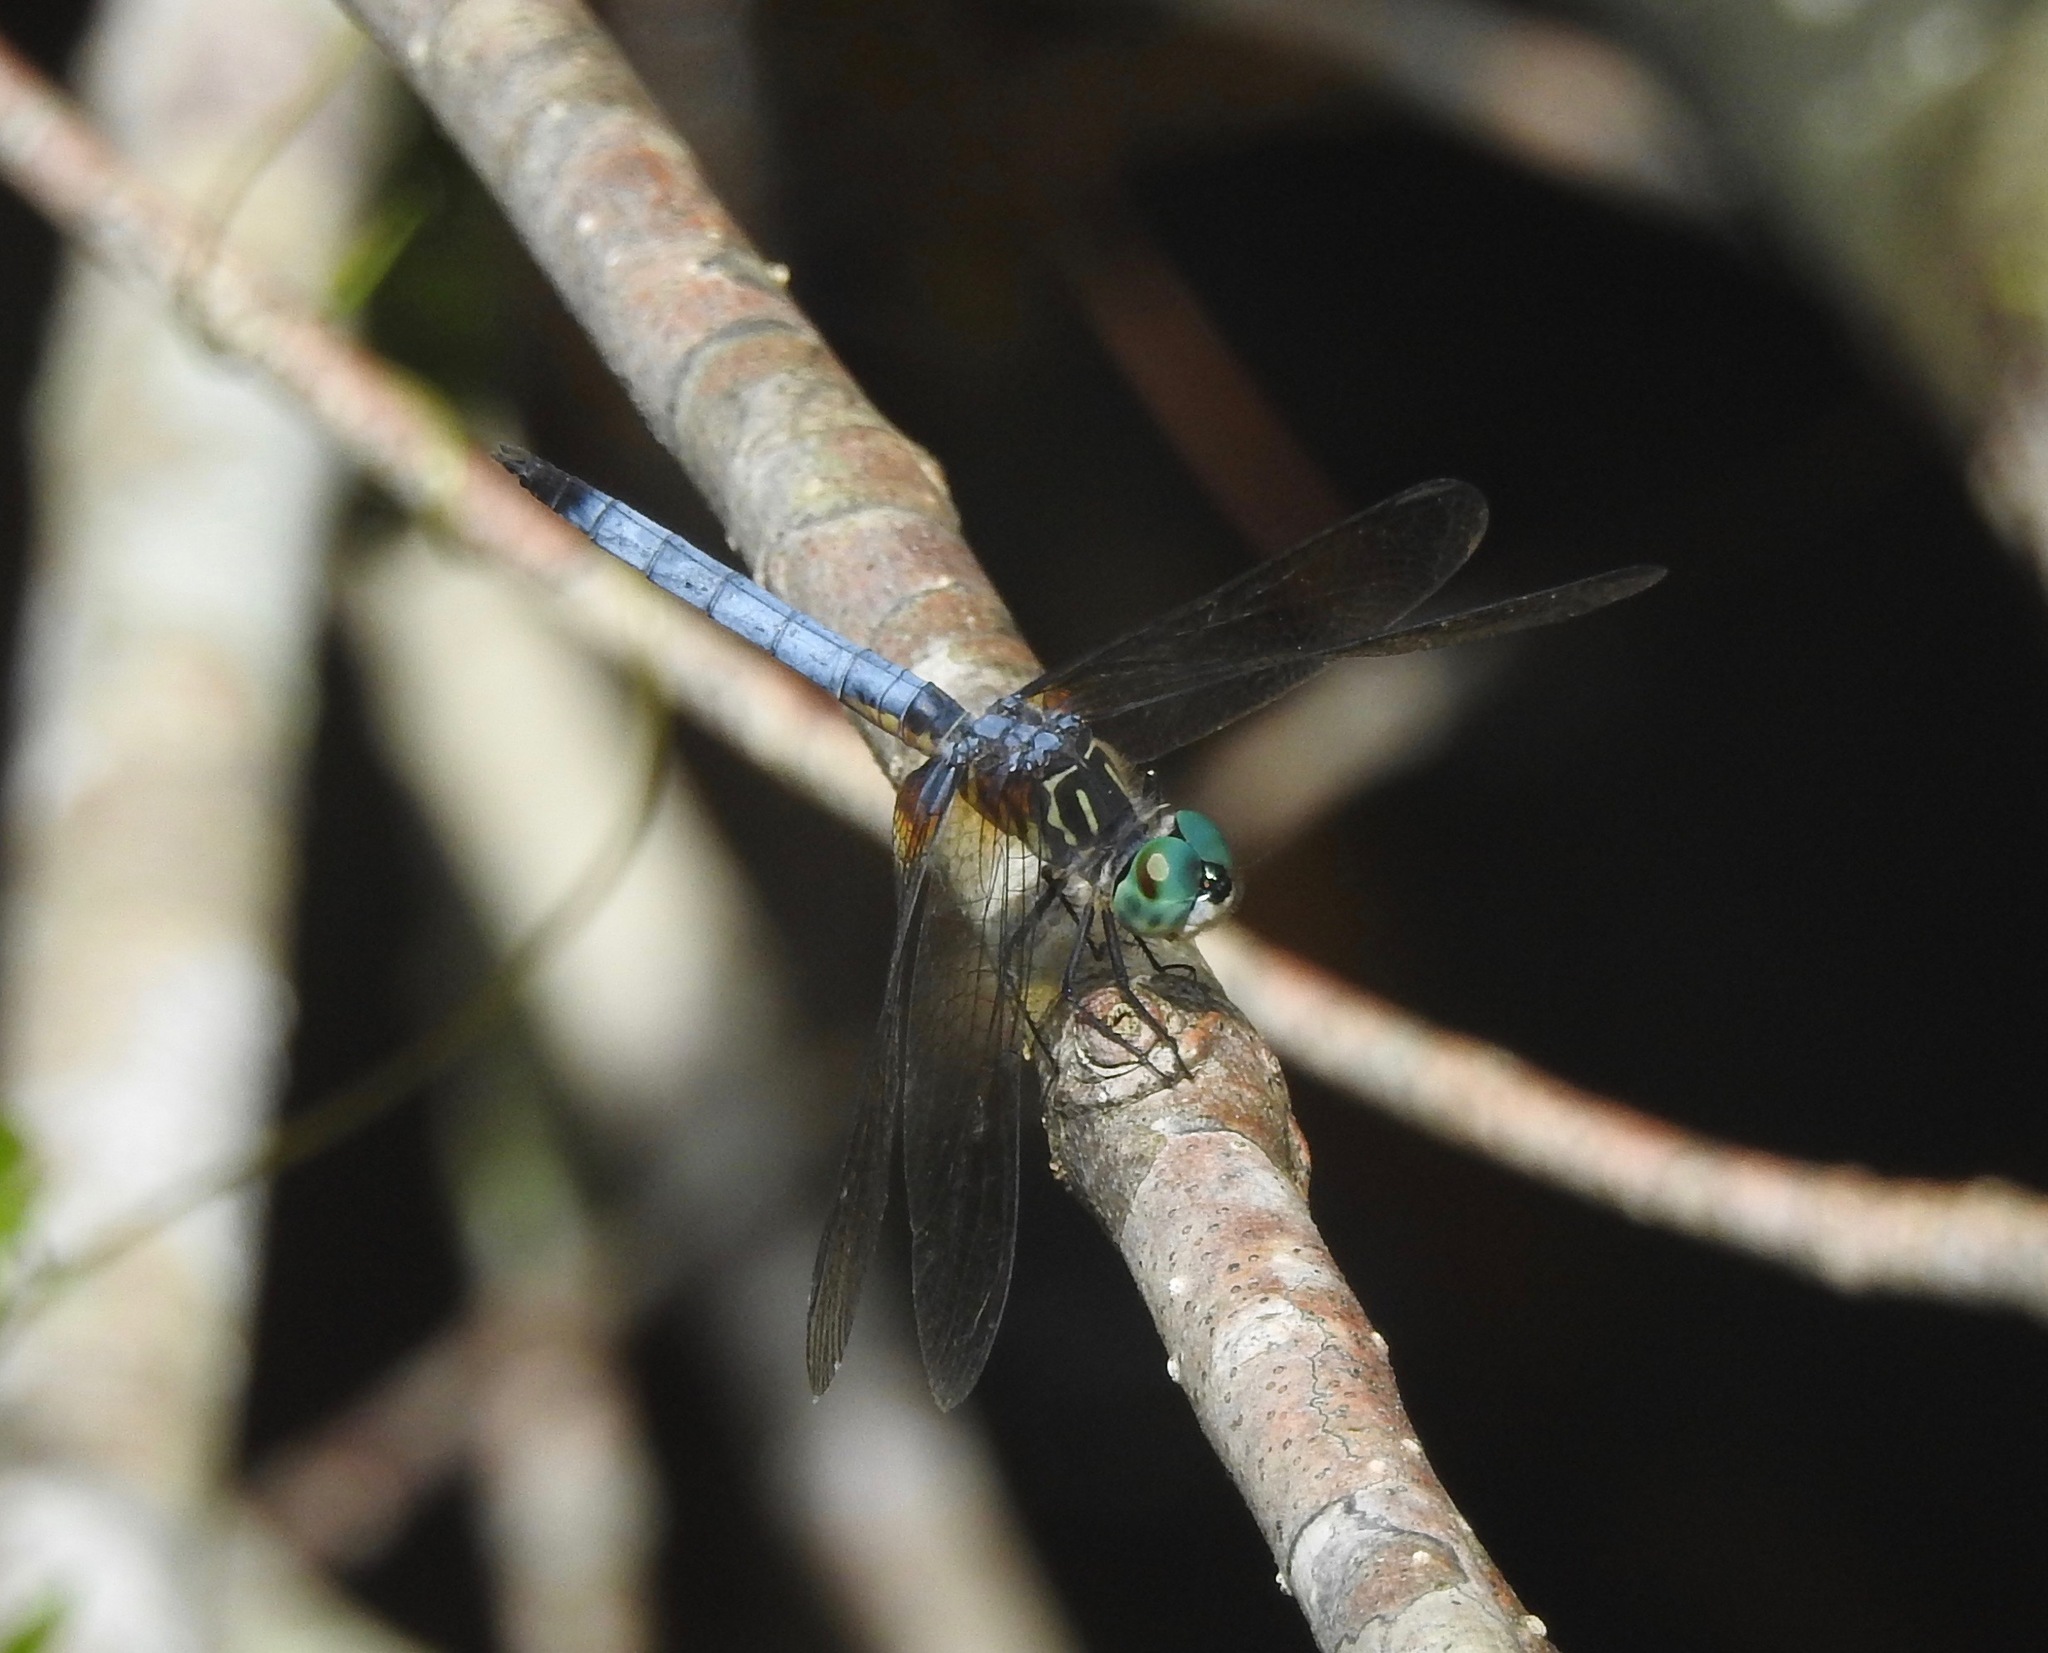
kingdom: Animalia
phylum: Arthropoda
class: Insecta
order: Odonata
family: Libellulidae
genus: Pachydiplax
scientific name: Pachydiplax longipennis
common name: Blue dasher
